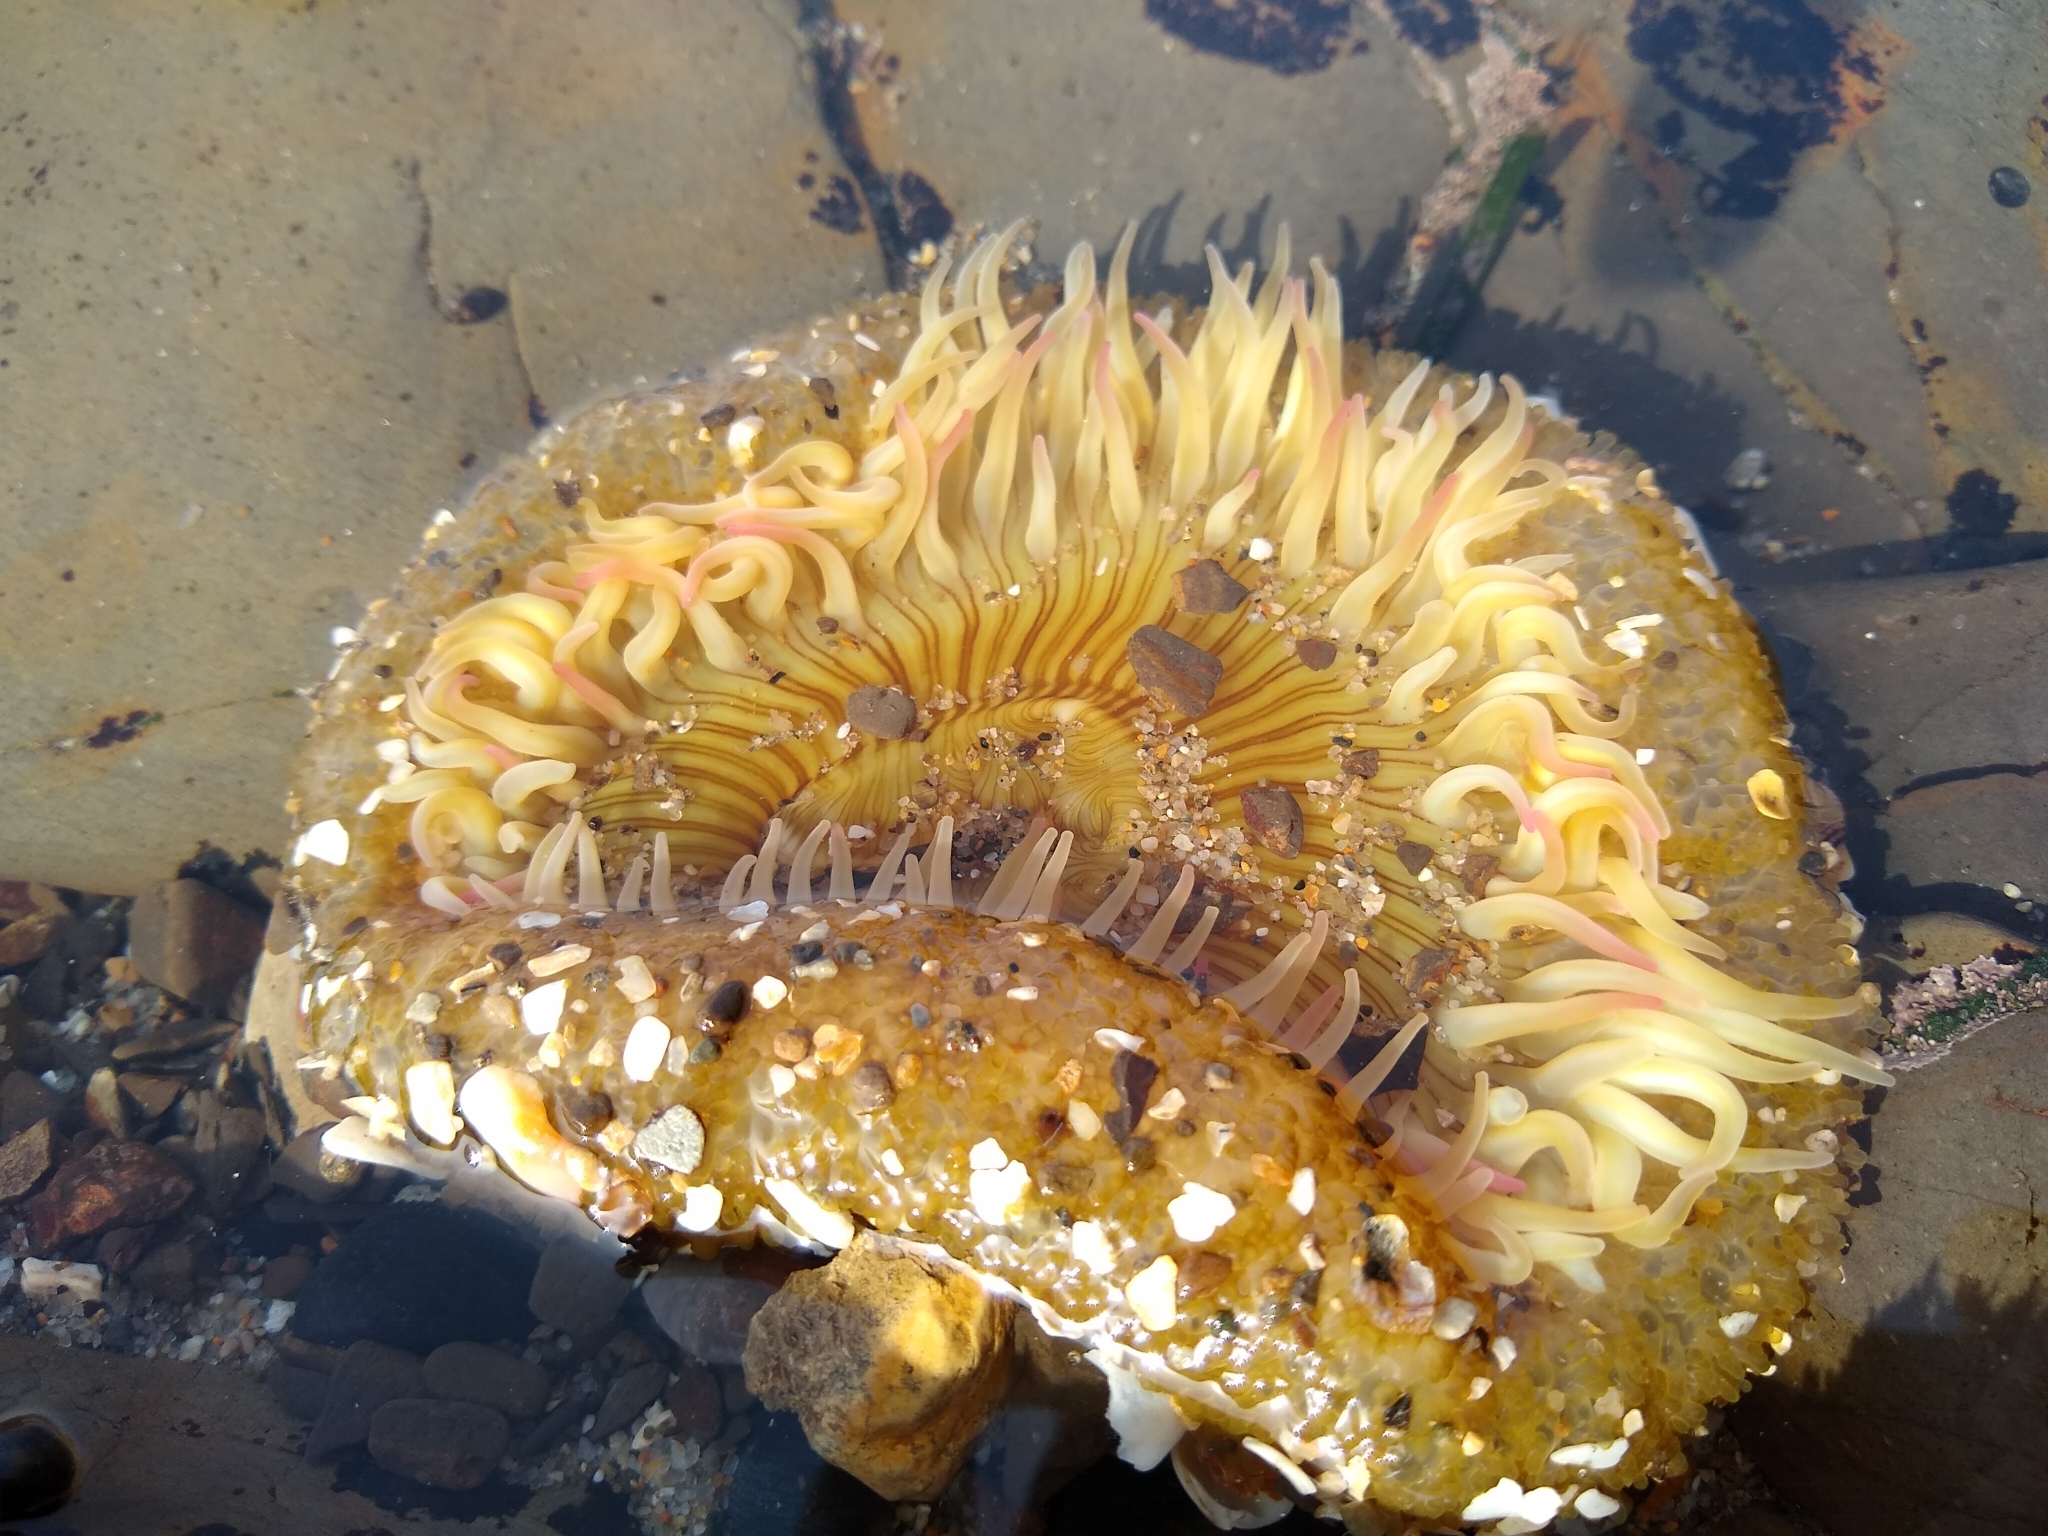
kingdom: Animalia
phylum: Cnidaria
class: Anthozoa
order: Actiniaria
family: Actiniidae
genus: Anthopleura
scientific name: Anthopleura sola
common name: Sun anemone
